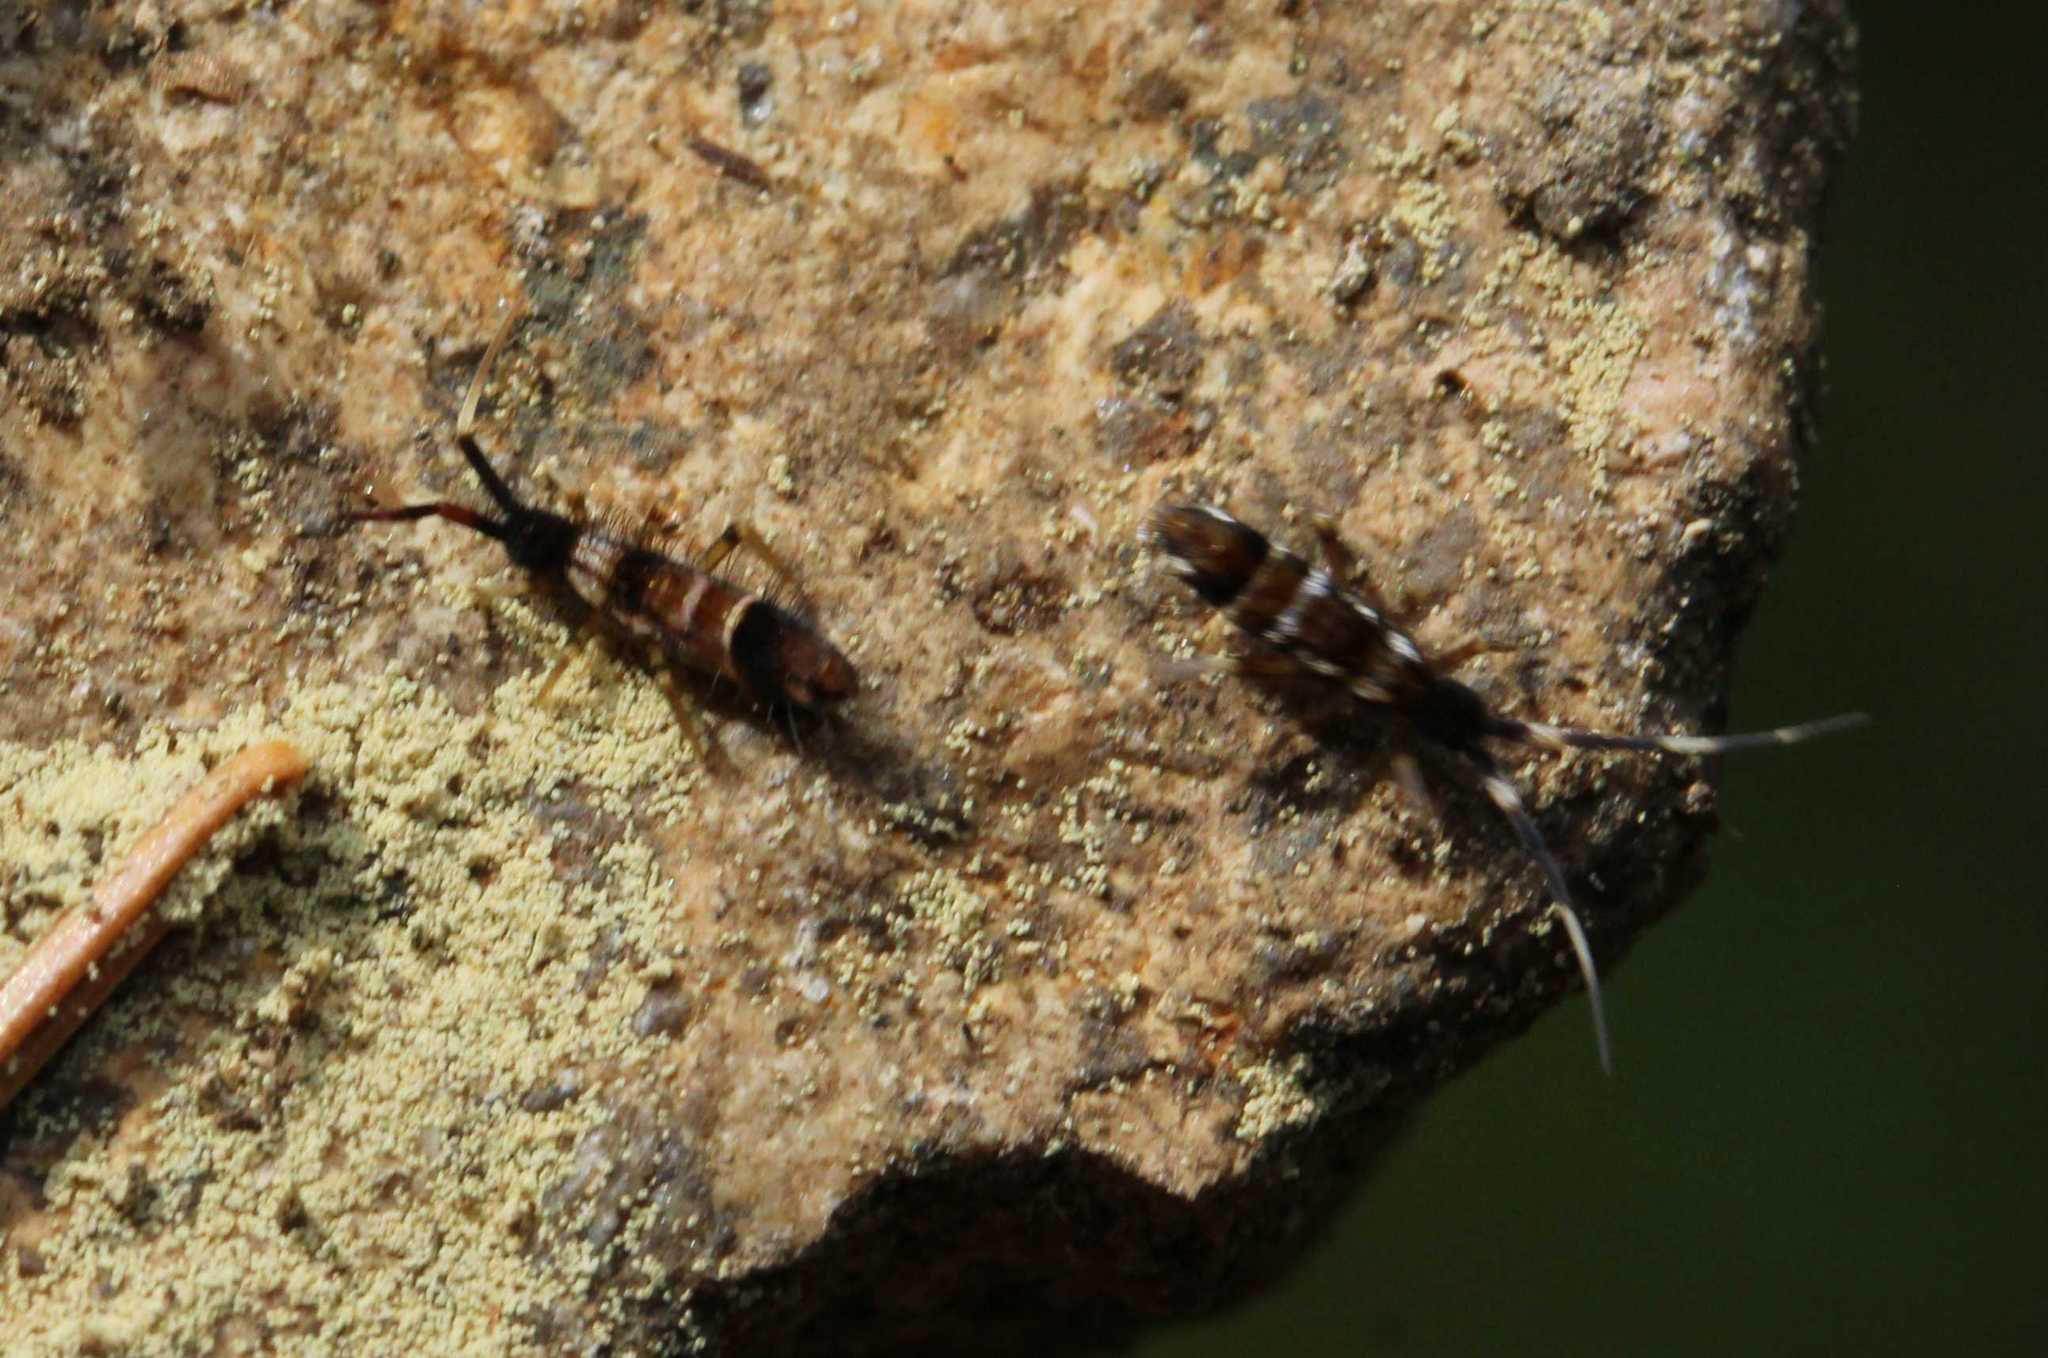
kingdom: Animalia
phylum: Arthropoda
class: Collembola
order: Entomobryomorpha
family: Entomobryidae
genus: Entomobrya
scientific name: Entomobrya nivalis
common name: Cosmopolitan springtail
